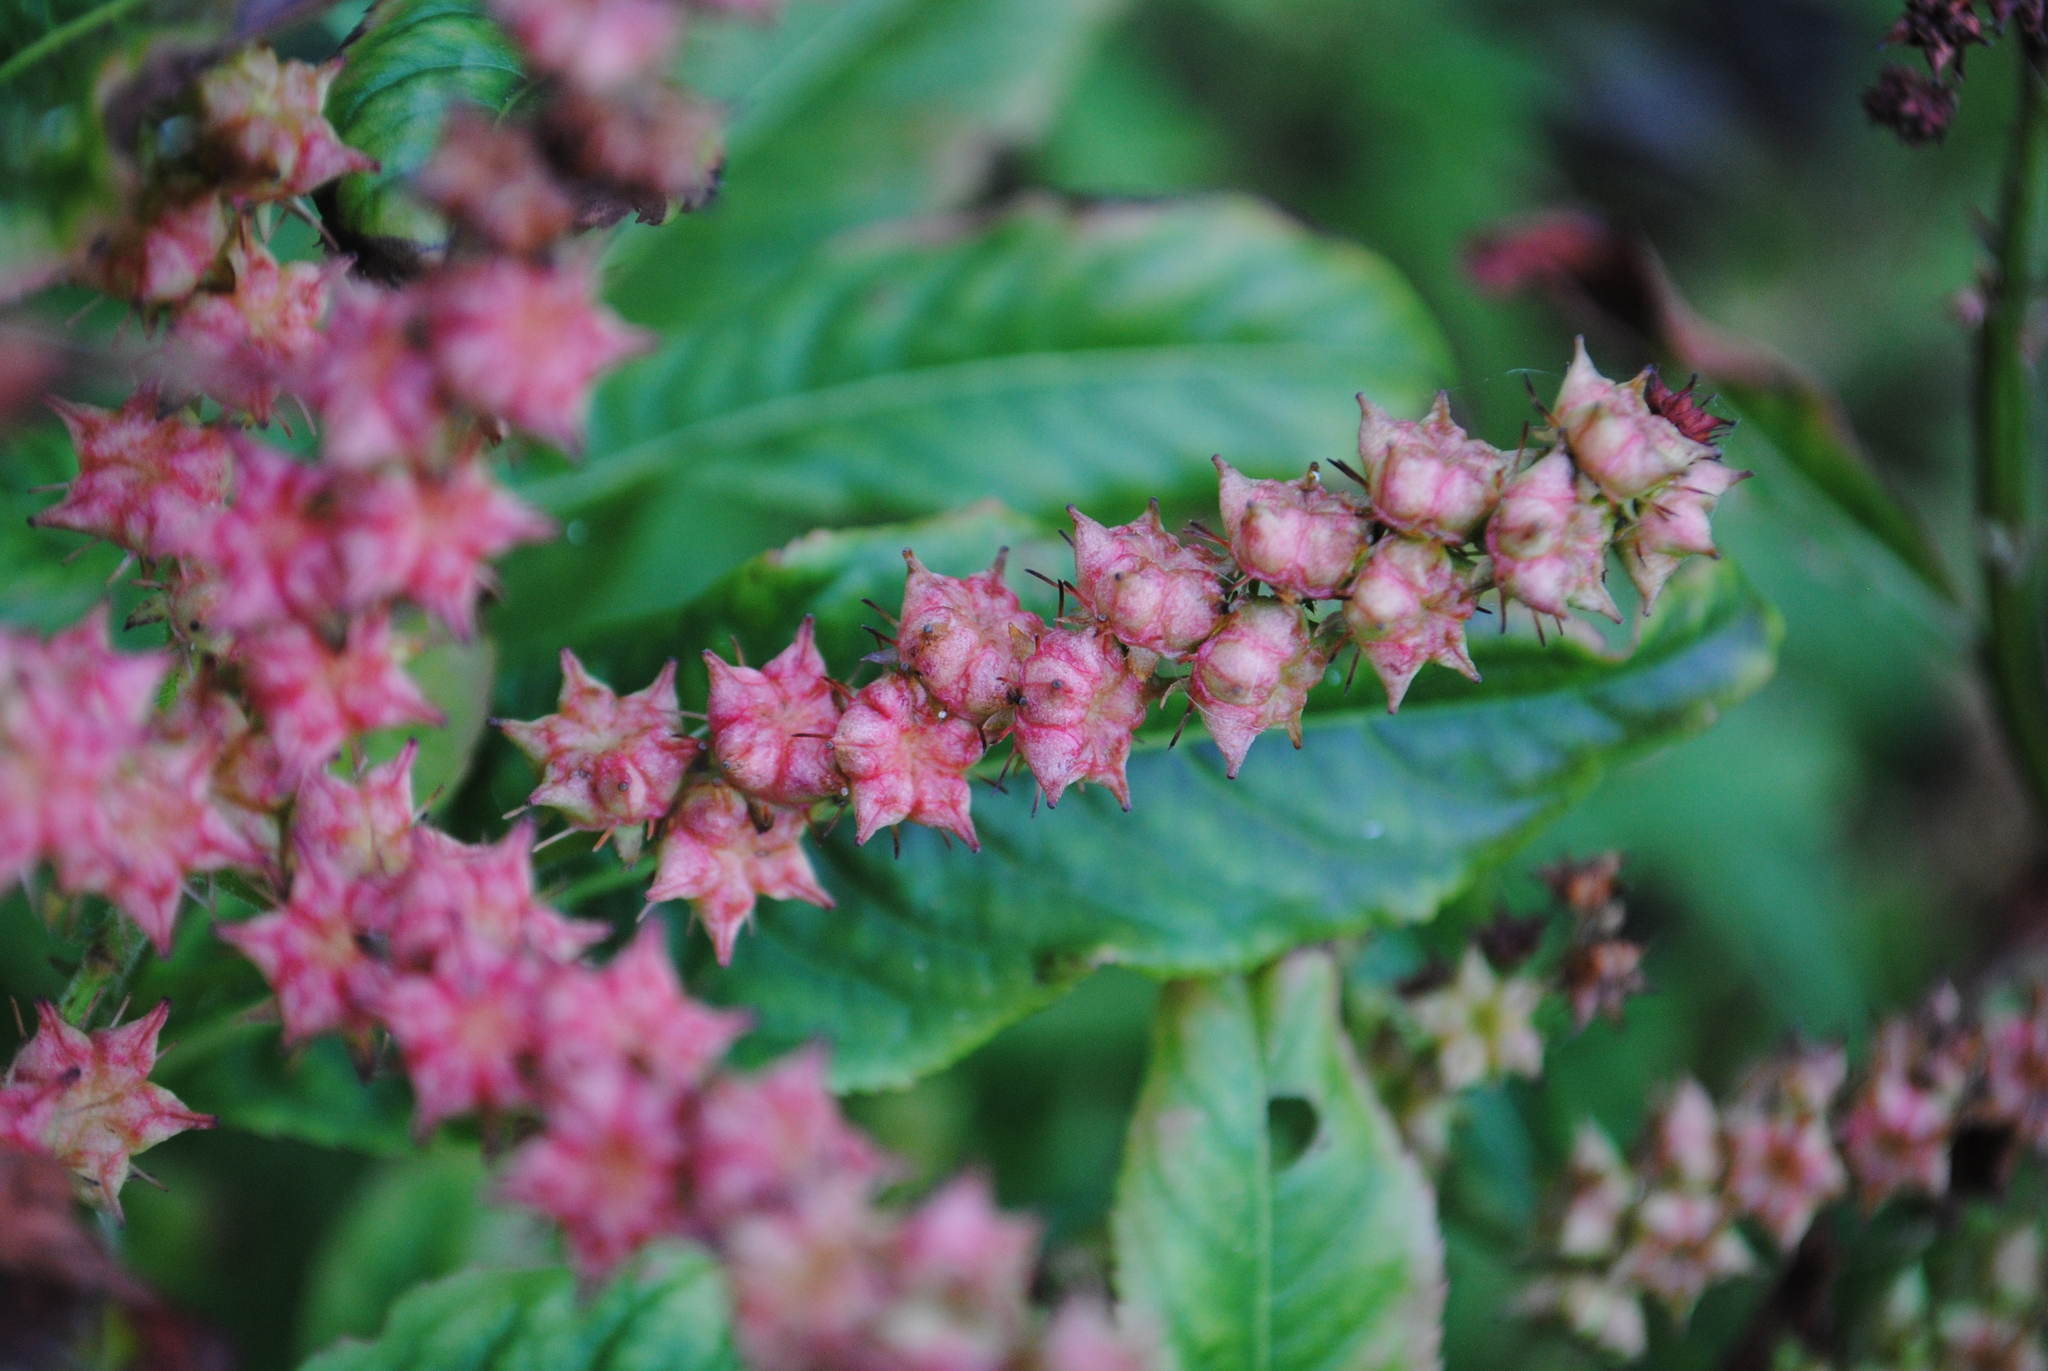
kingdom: Plantae
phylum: Tracheophyta
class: Magnoliopsida
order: Saxifragales
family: Penthoraceae
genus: Penthorum
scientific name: Penthorum sedoides
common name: Ditch stonecrop
